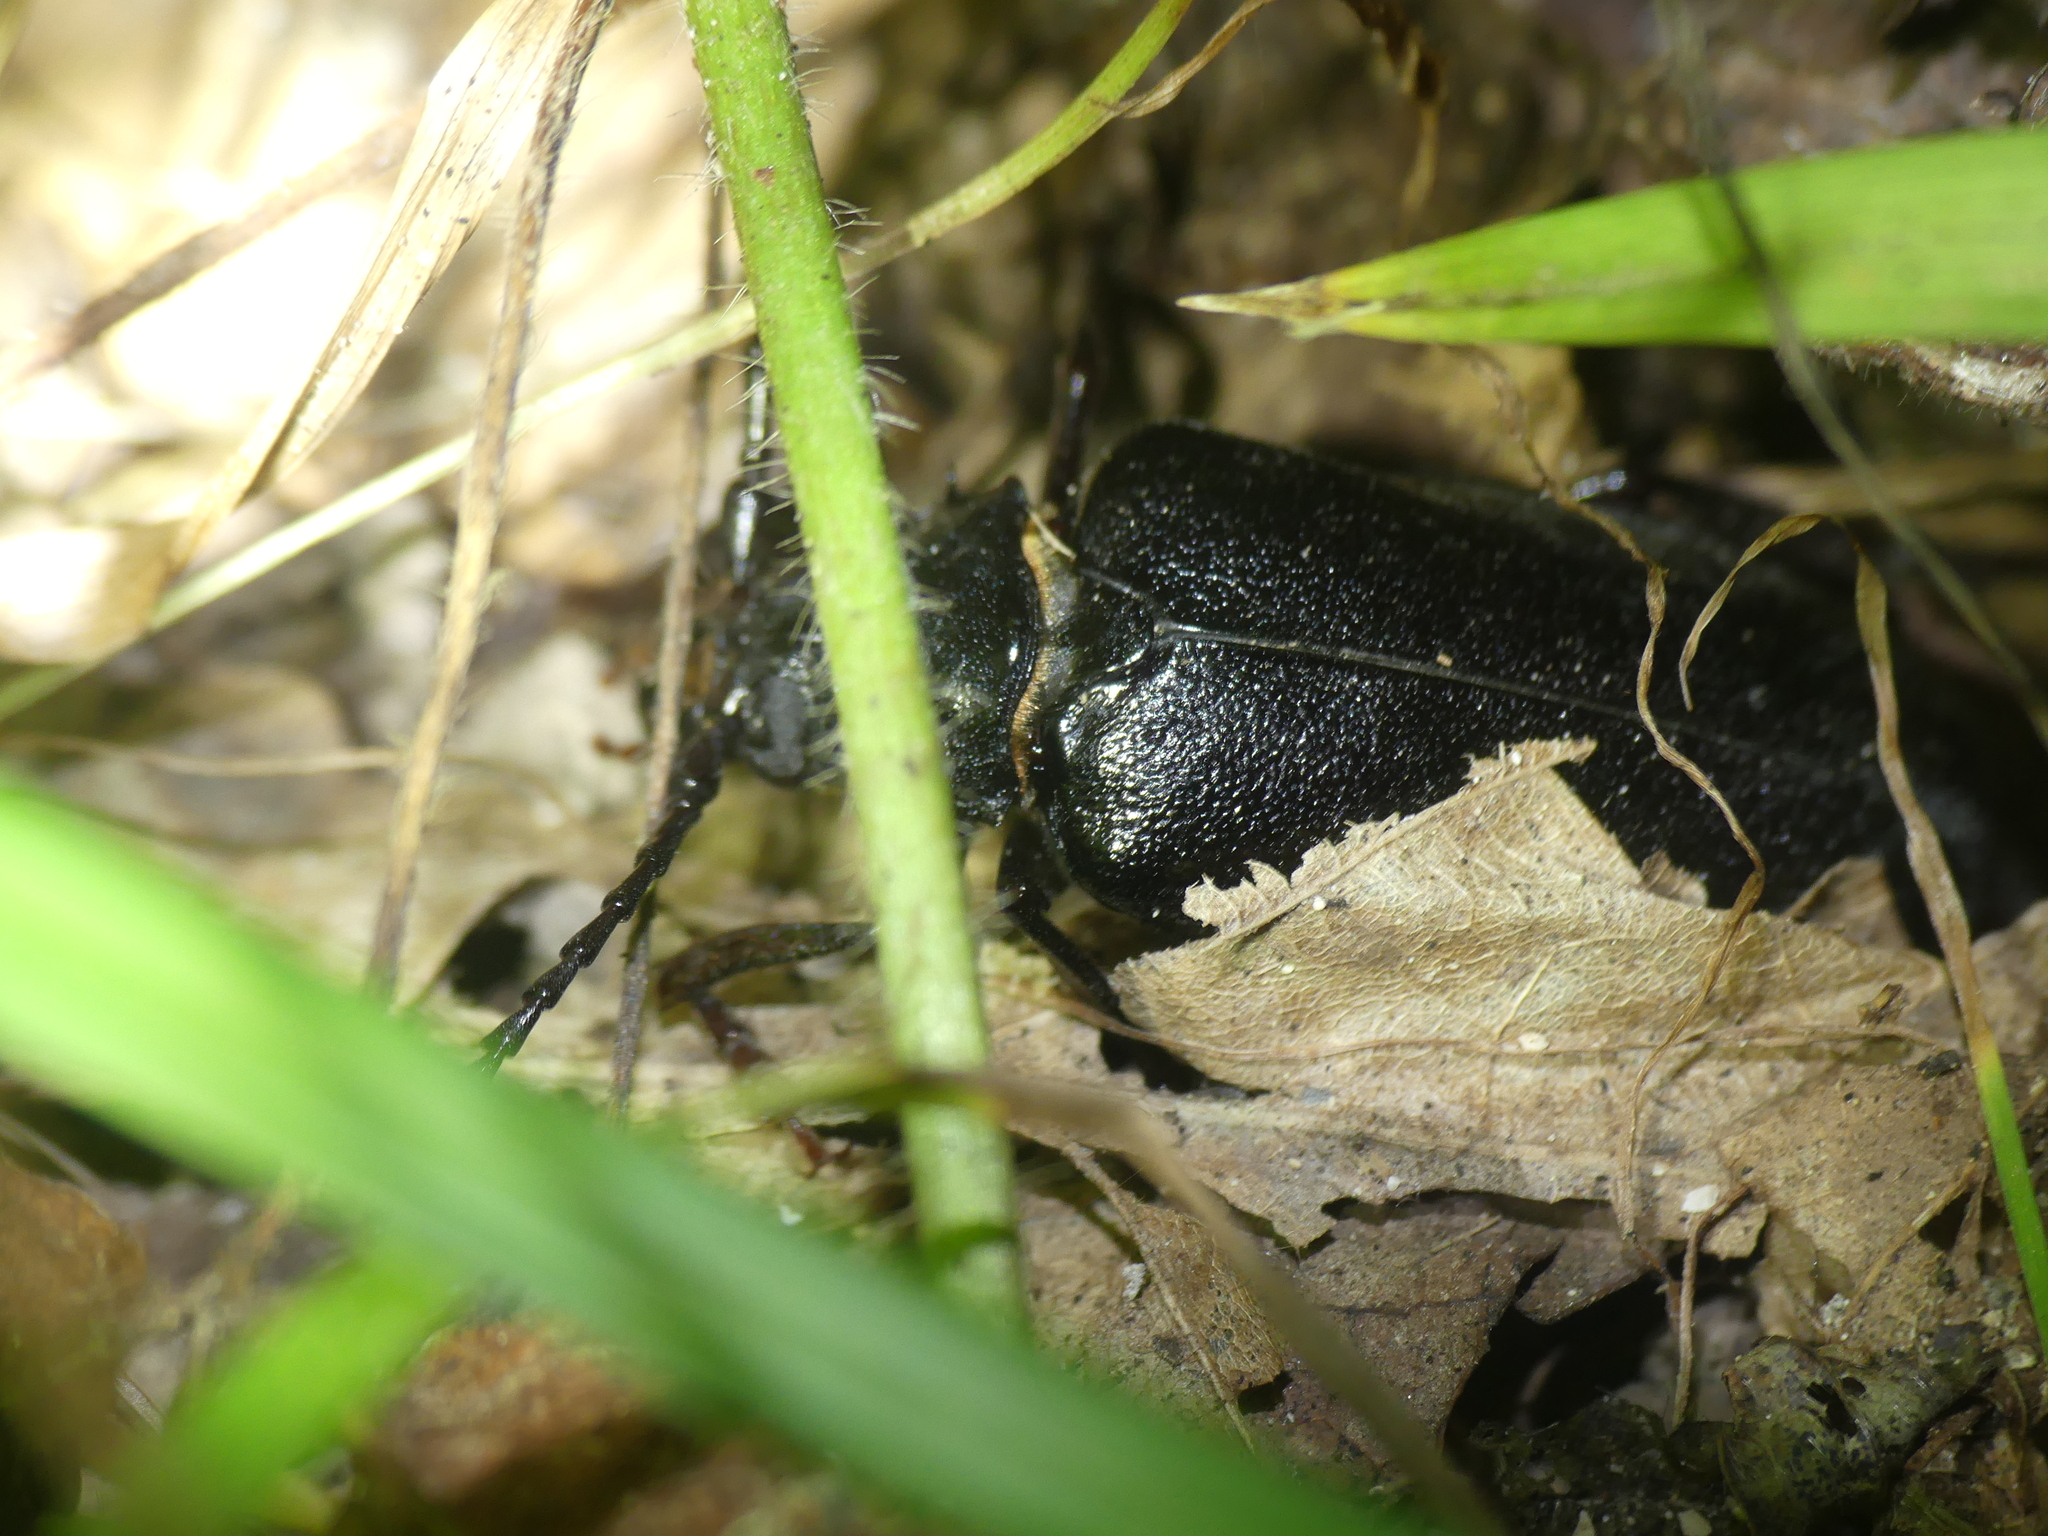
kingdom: Animalia
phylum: Arthropoda
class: Insecta
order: Coleoptera
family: Cerambycidae
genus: Prionus
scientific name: Prionus coriarius
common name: Tanner beetle
